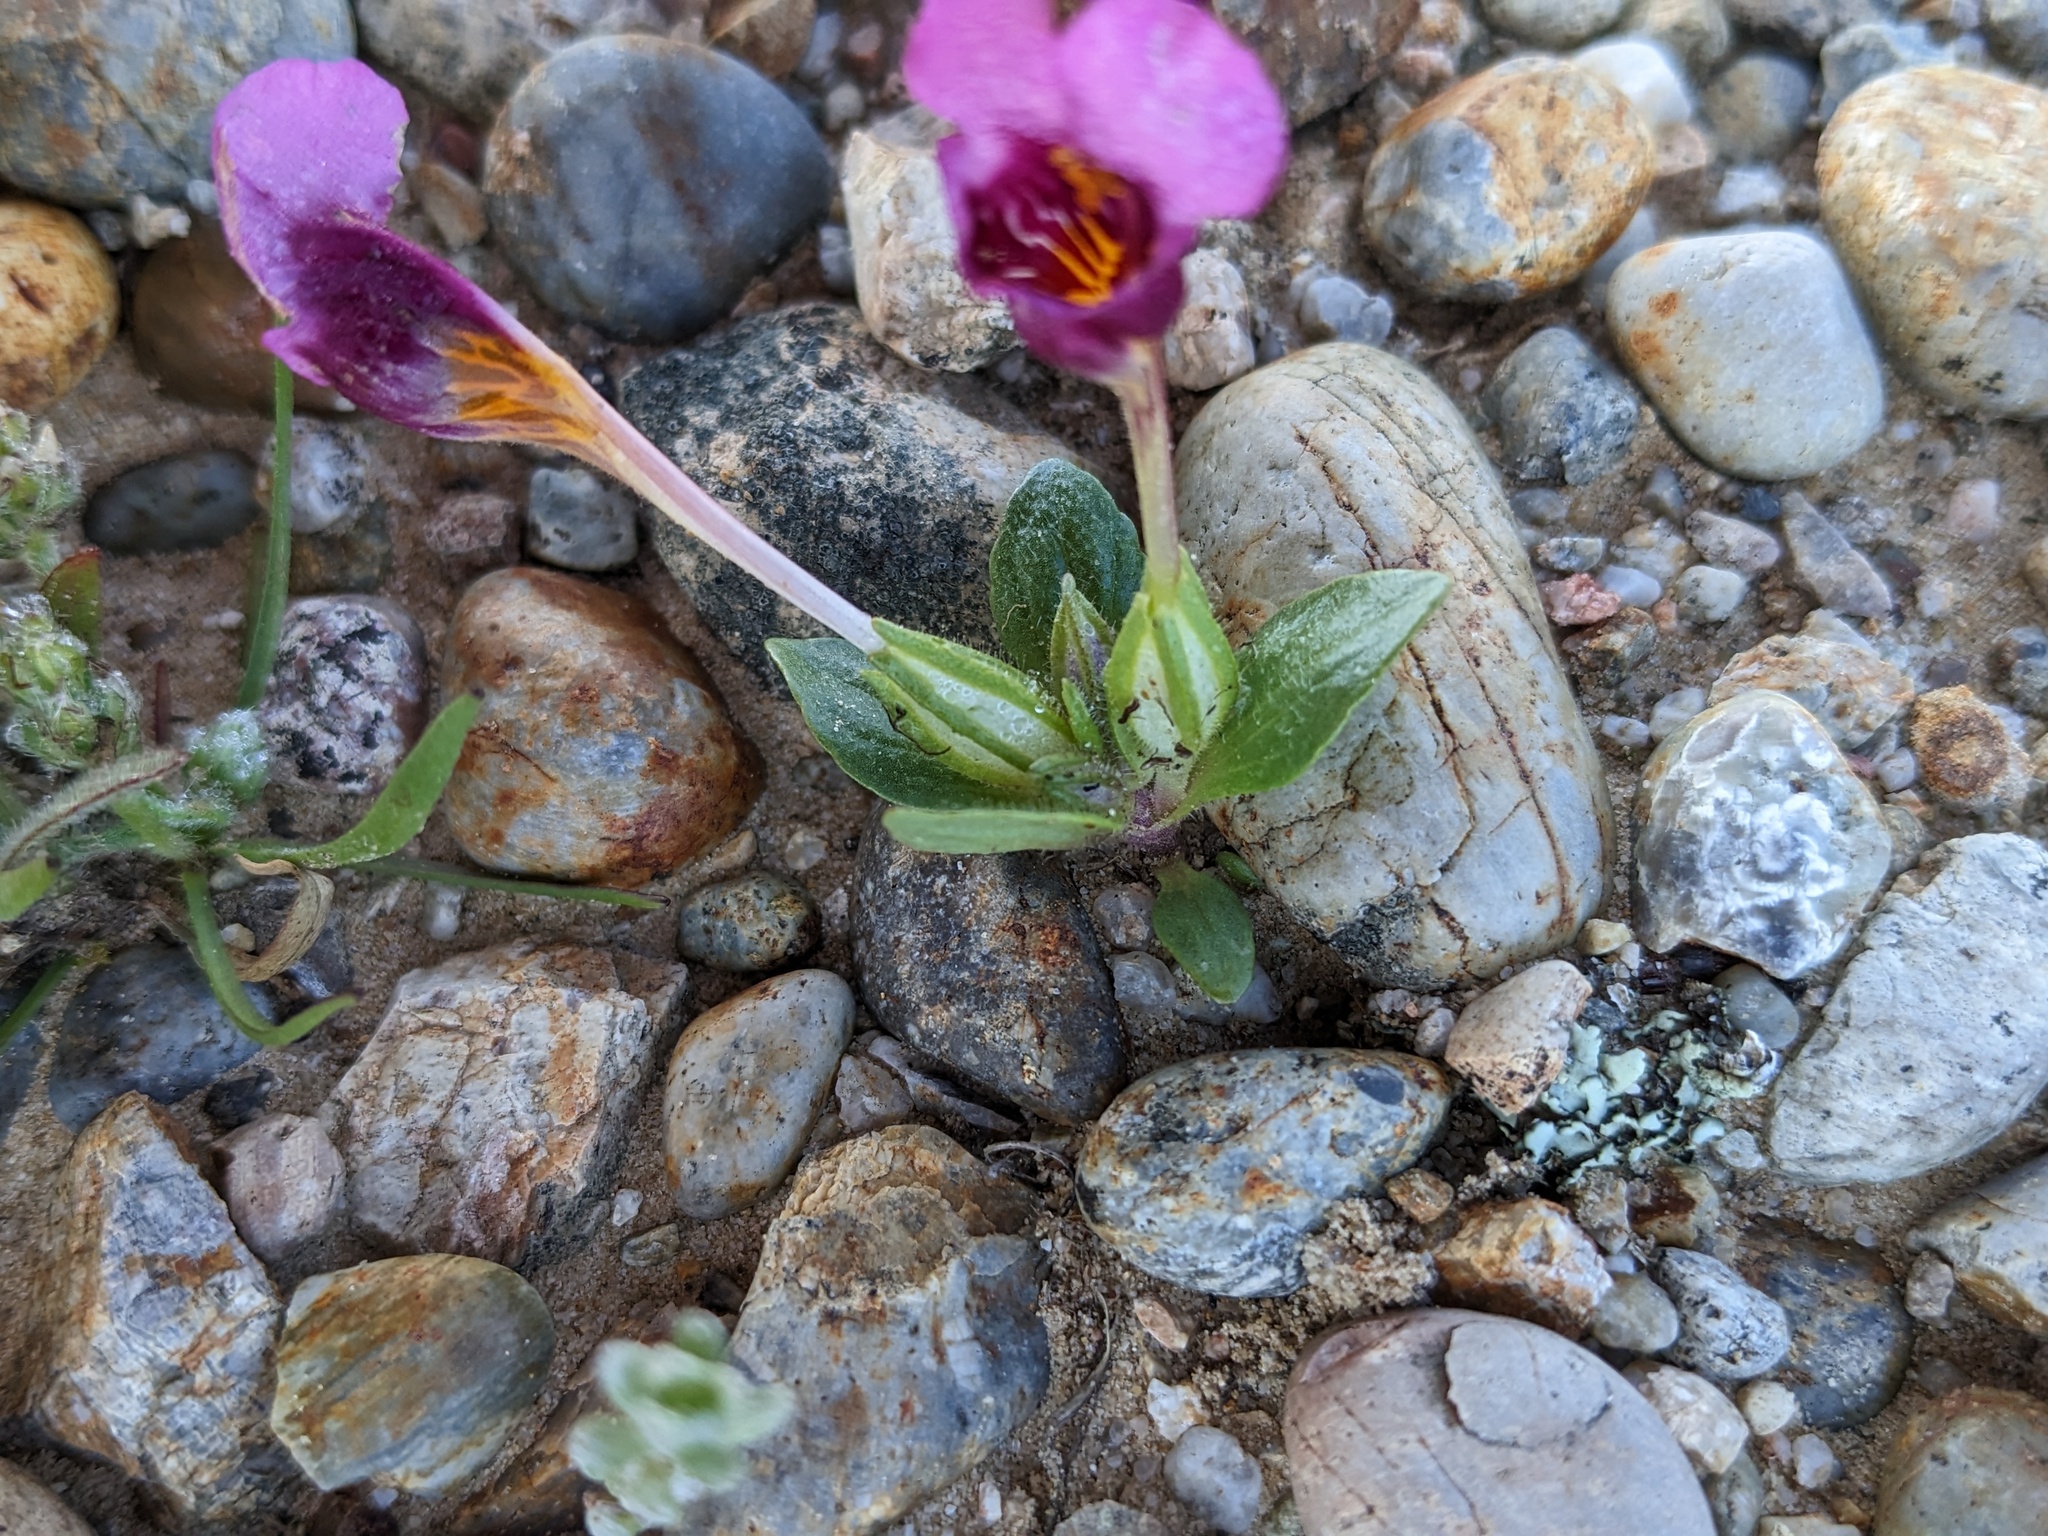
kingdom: Plantae
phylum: Tracheophyta
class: Magnoliopsida
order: Lamiales
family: Phrymaceae
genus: Diplacus
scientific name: Diplacus douglasii
